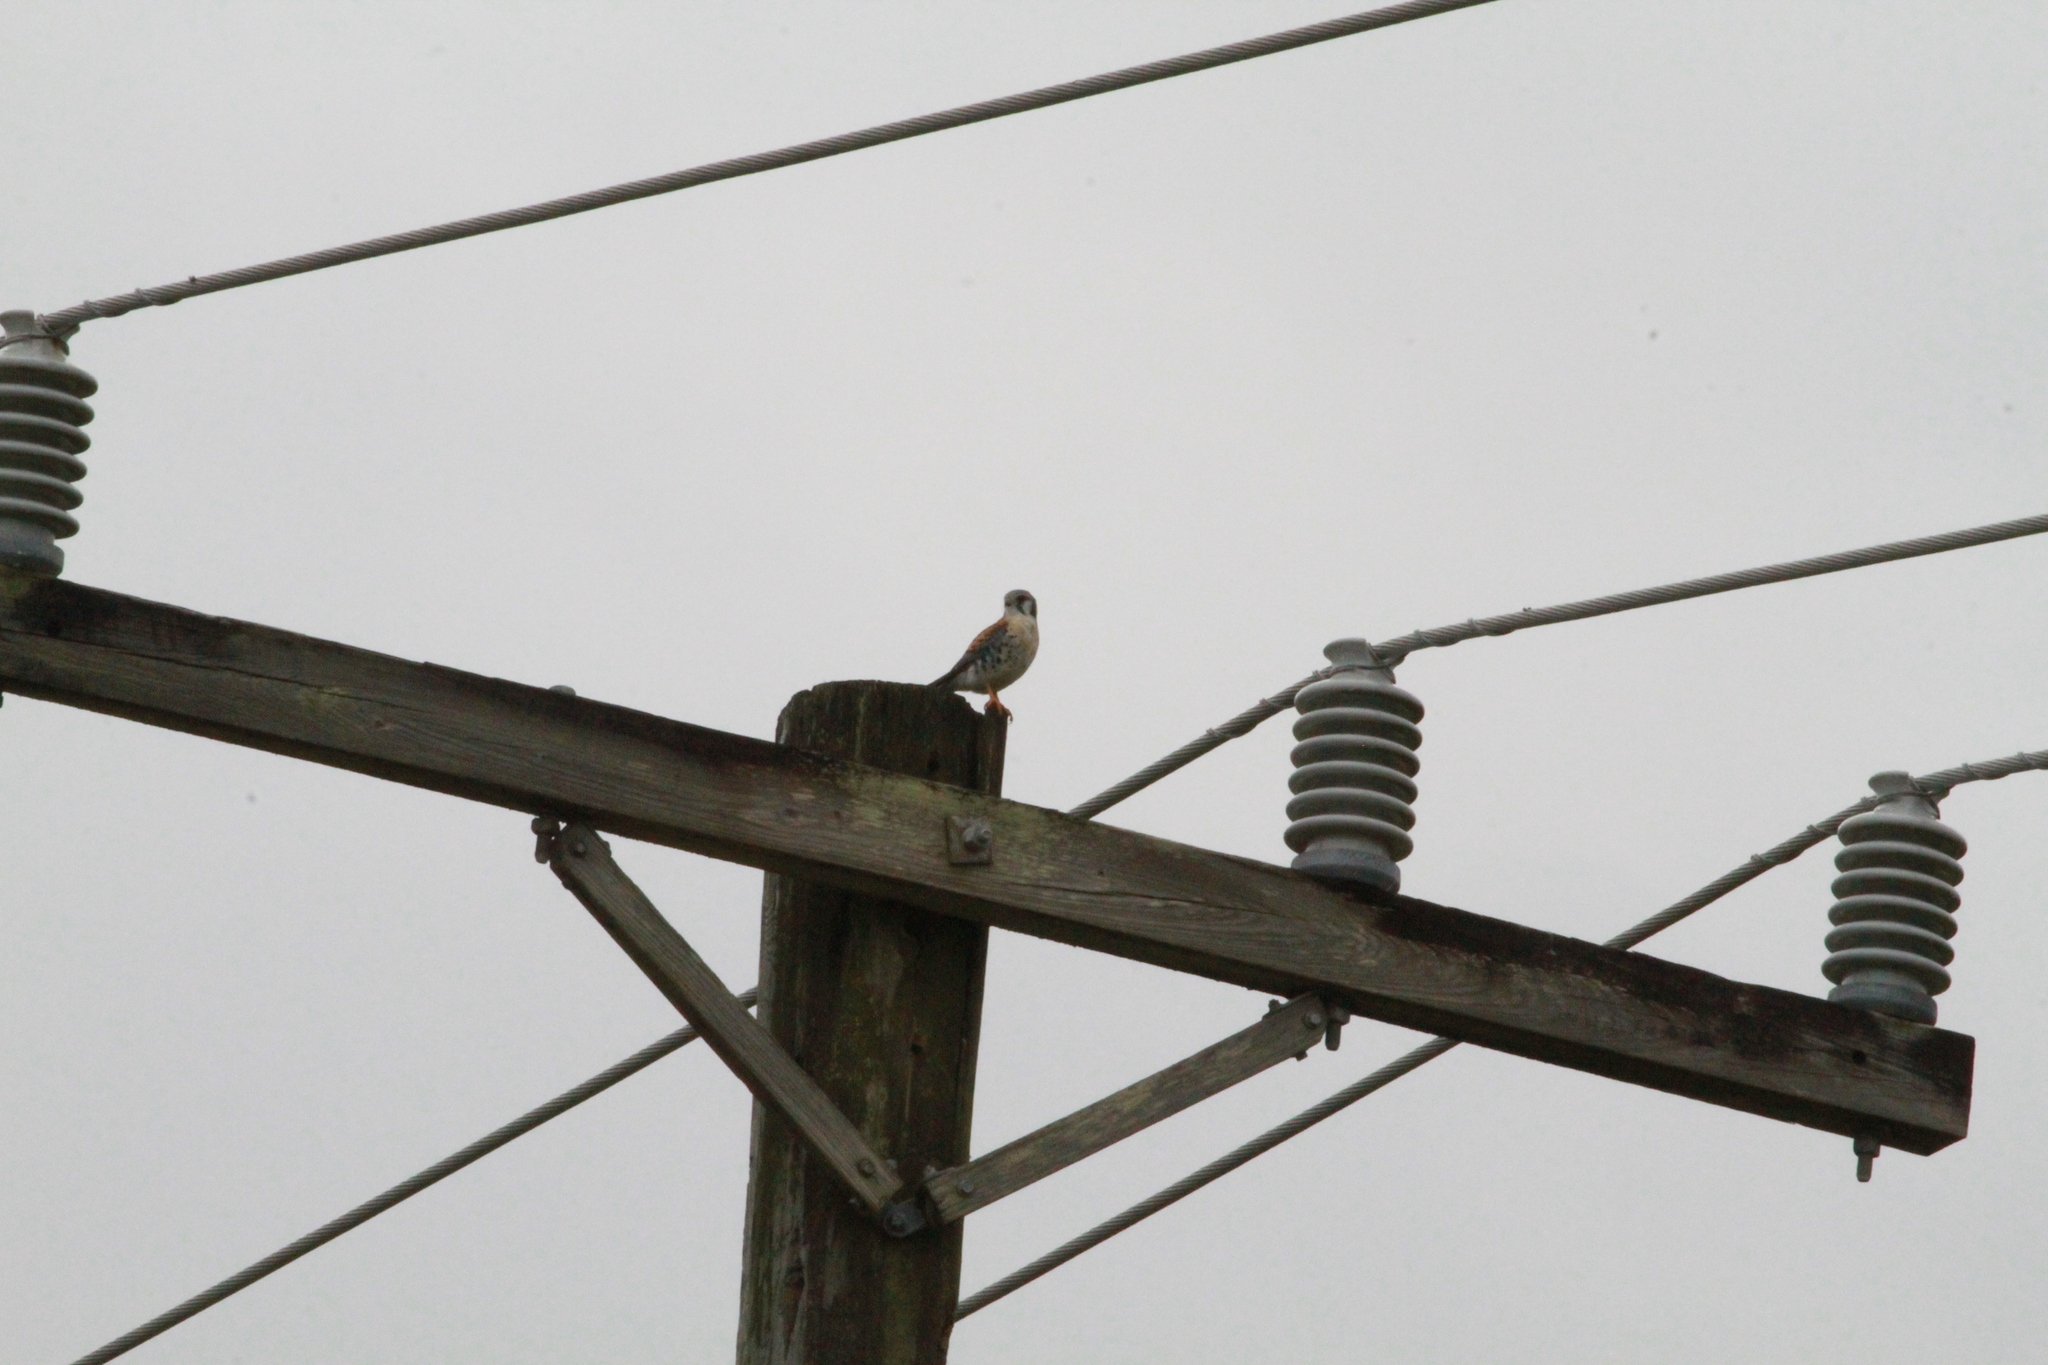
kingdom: Animalia
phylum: Chordata
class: Aves
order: Falconiformes
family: Falconidae
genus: Falco
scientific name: Falco sparverius
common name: American kestrel
